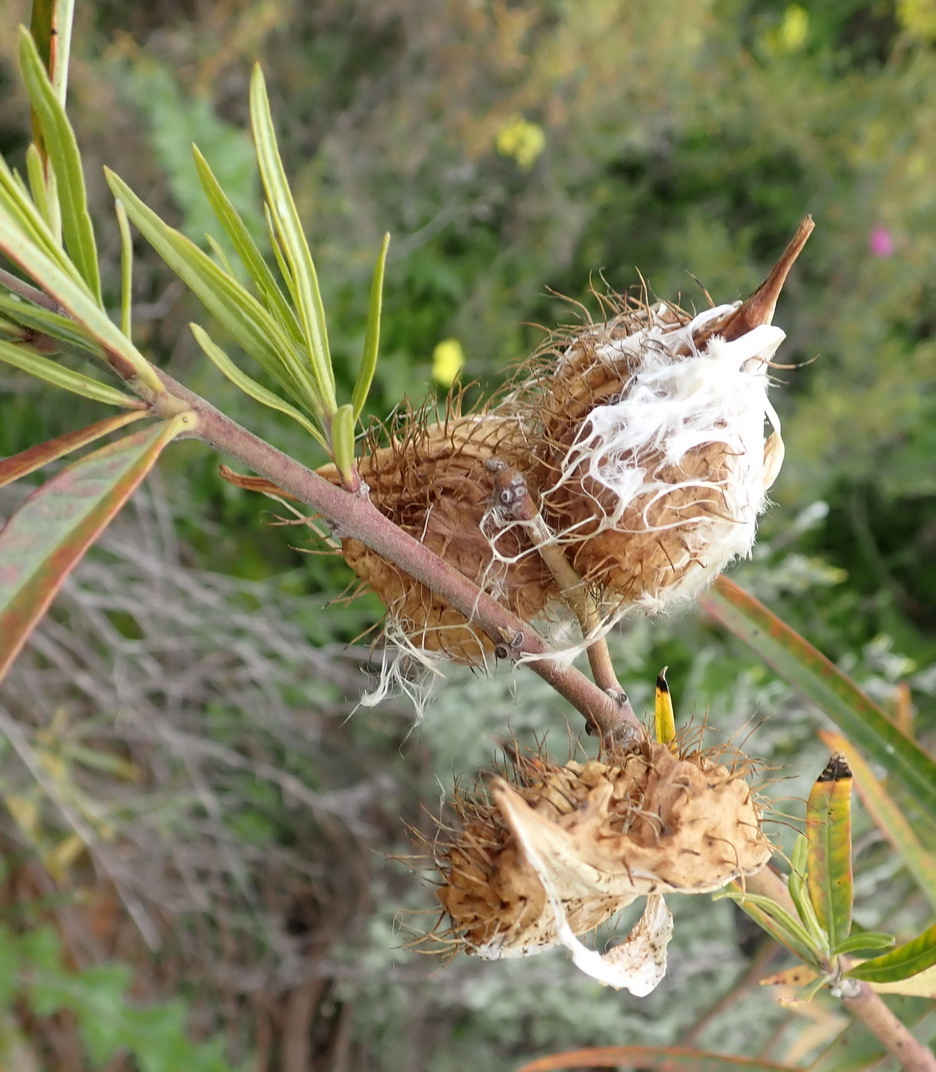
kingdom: Plantae
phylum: Tracheophyta
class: Magnoliopsida
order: Gentianales
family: Apocynaceae
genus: Gomphocarpus
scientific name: Gomphocarpus fruticosus
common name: Milkweed
